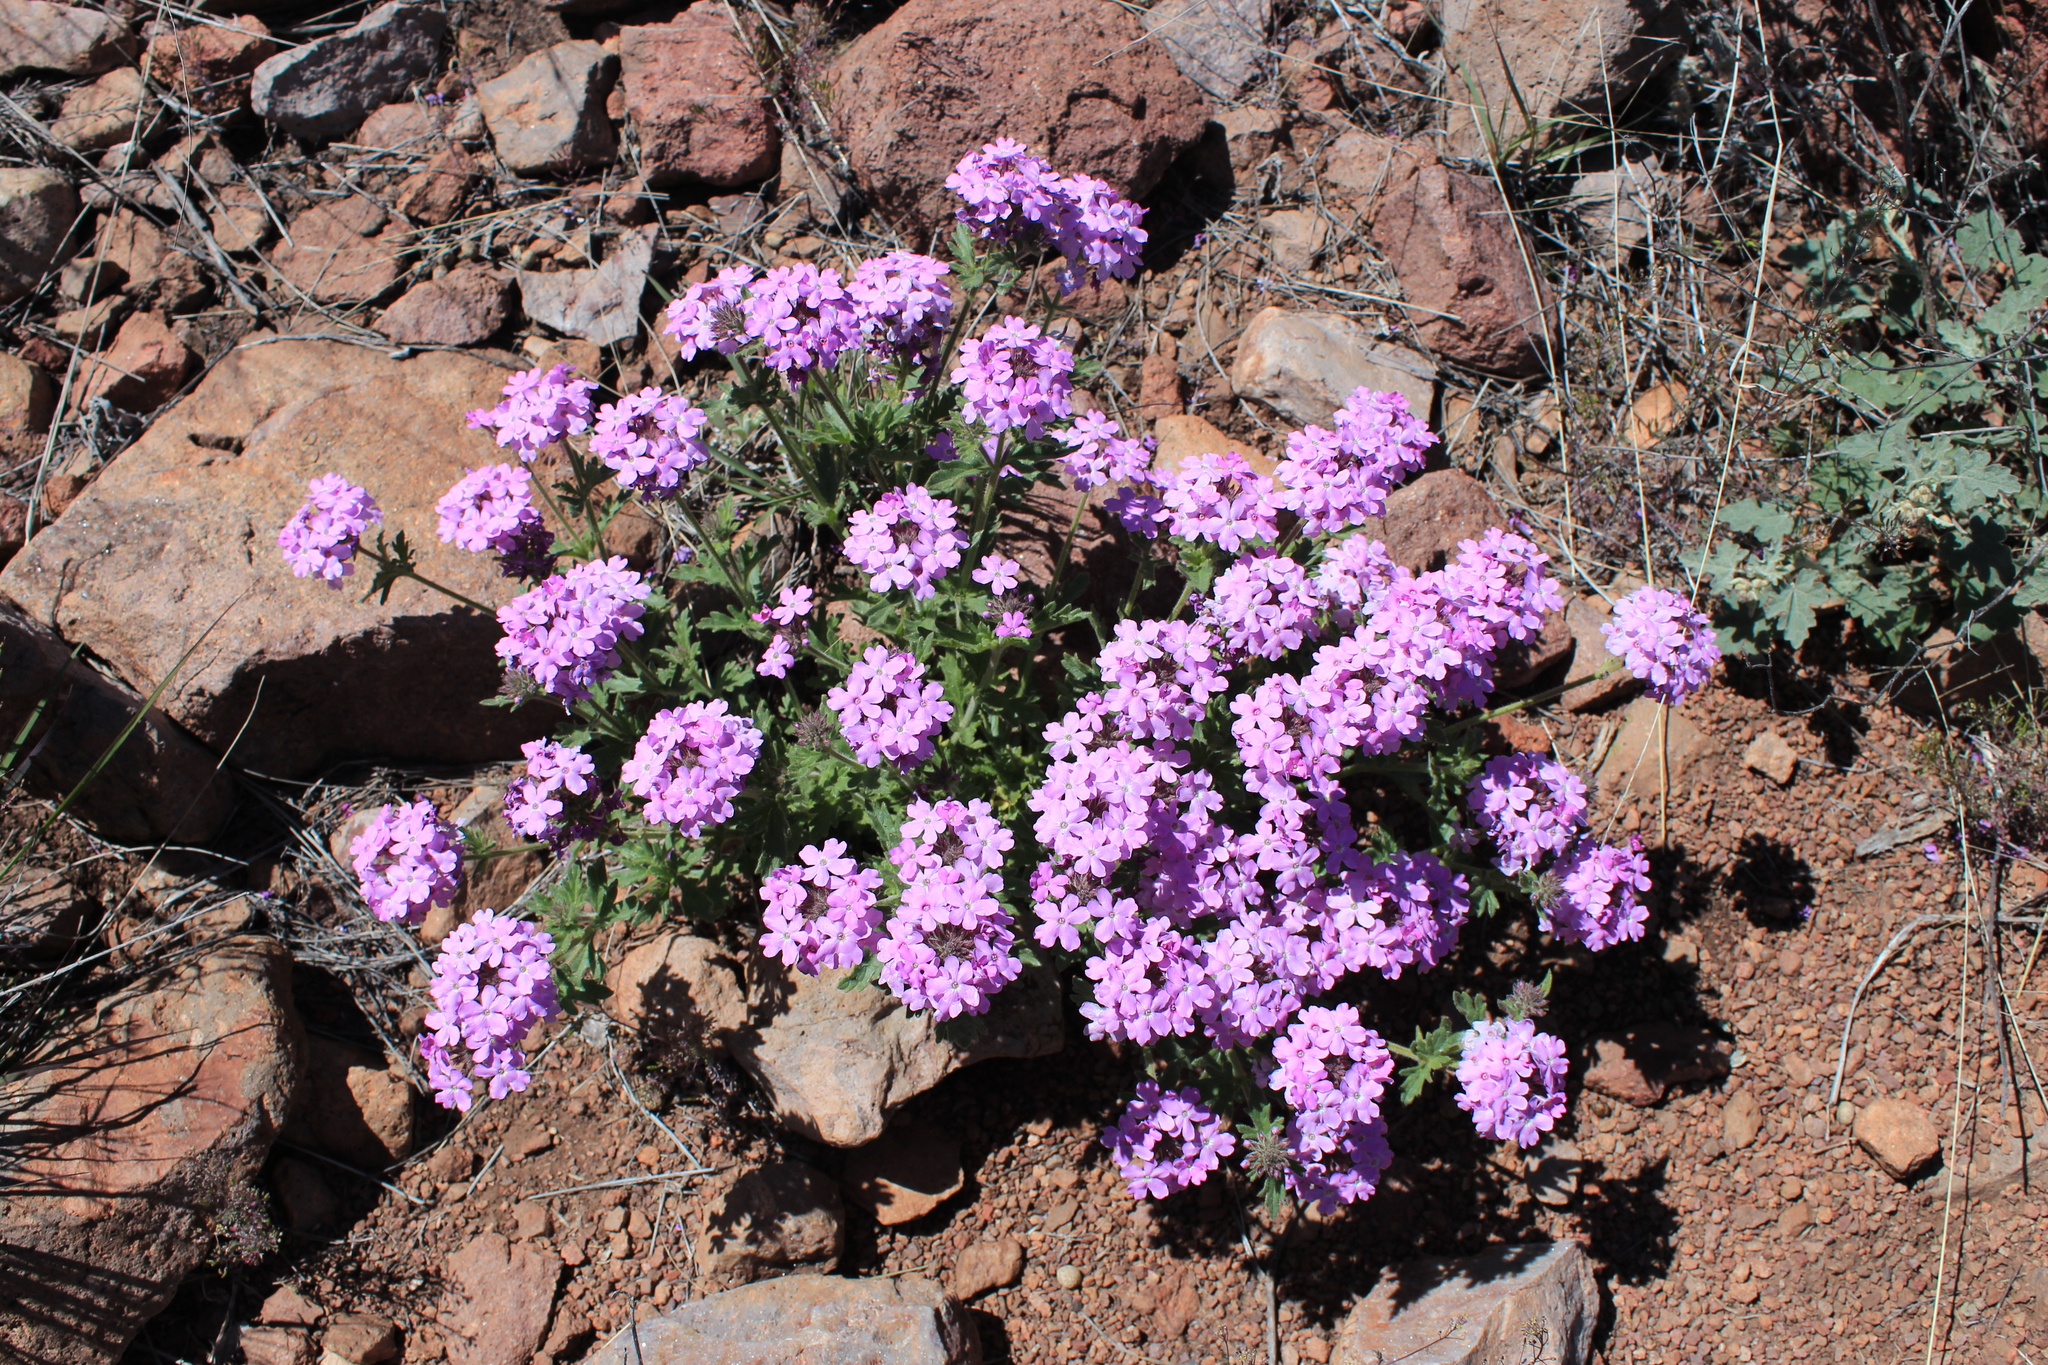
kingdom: Plantae
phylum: Tracheophyta
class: Magnoliopsida
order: Lamiales
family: Verbenaceae
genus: Verbena
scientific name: Verbena gooddingii
